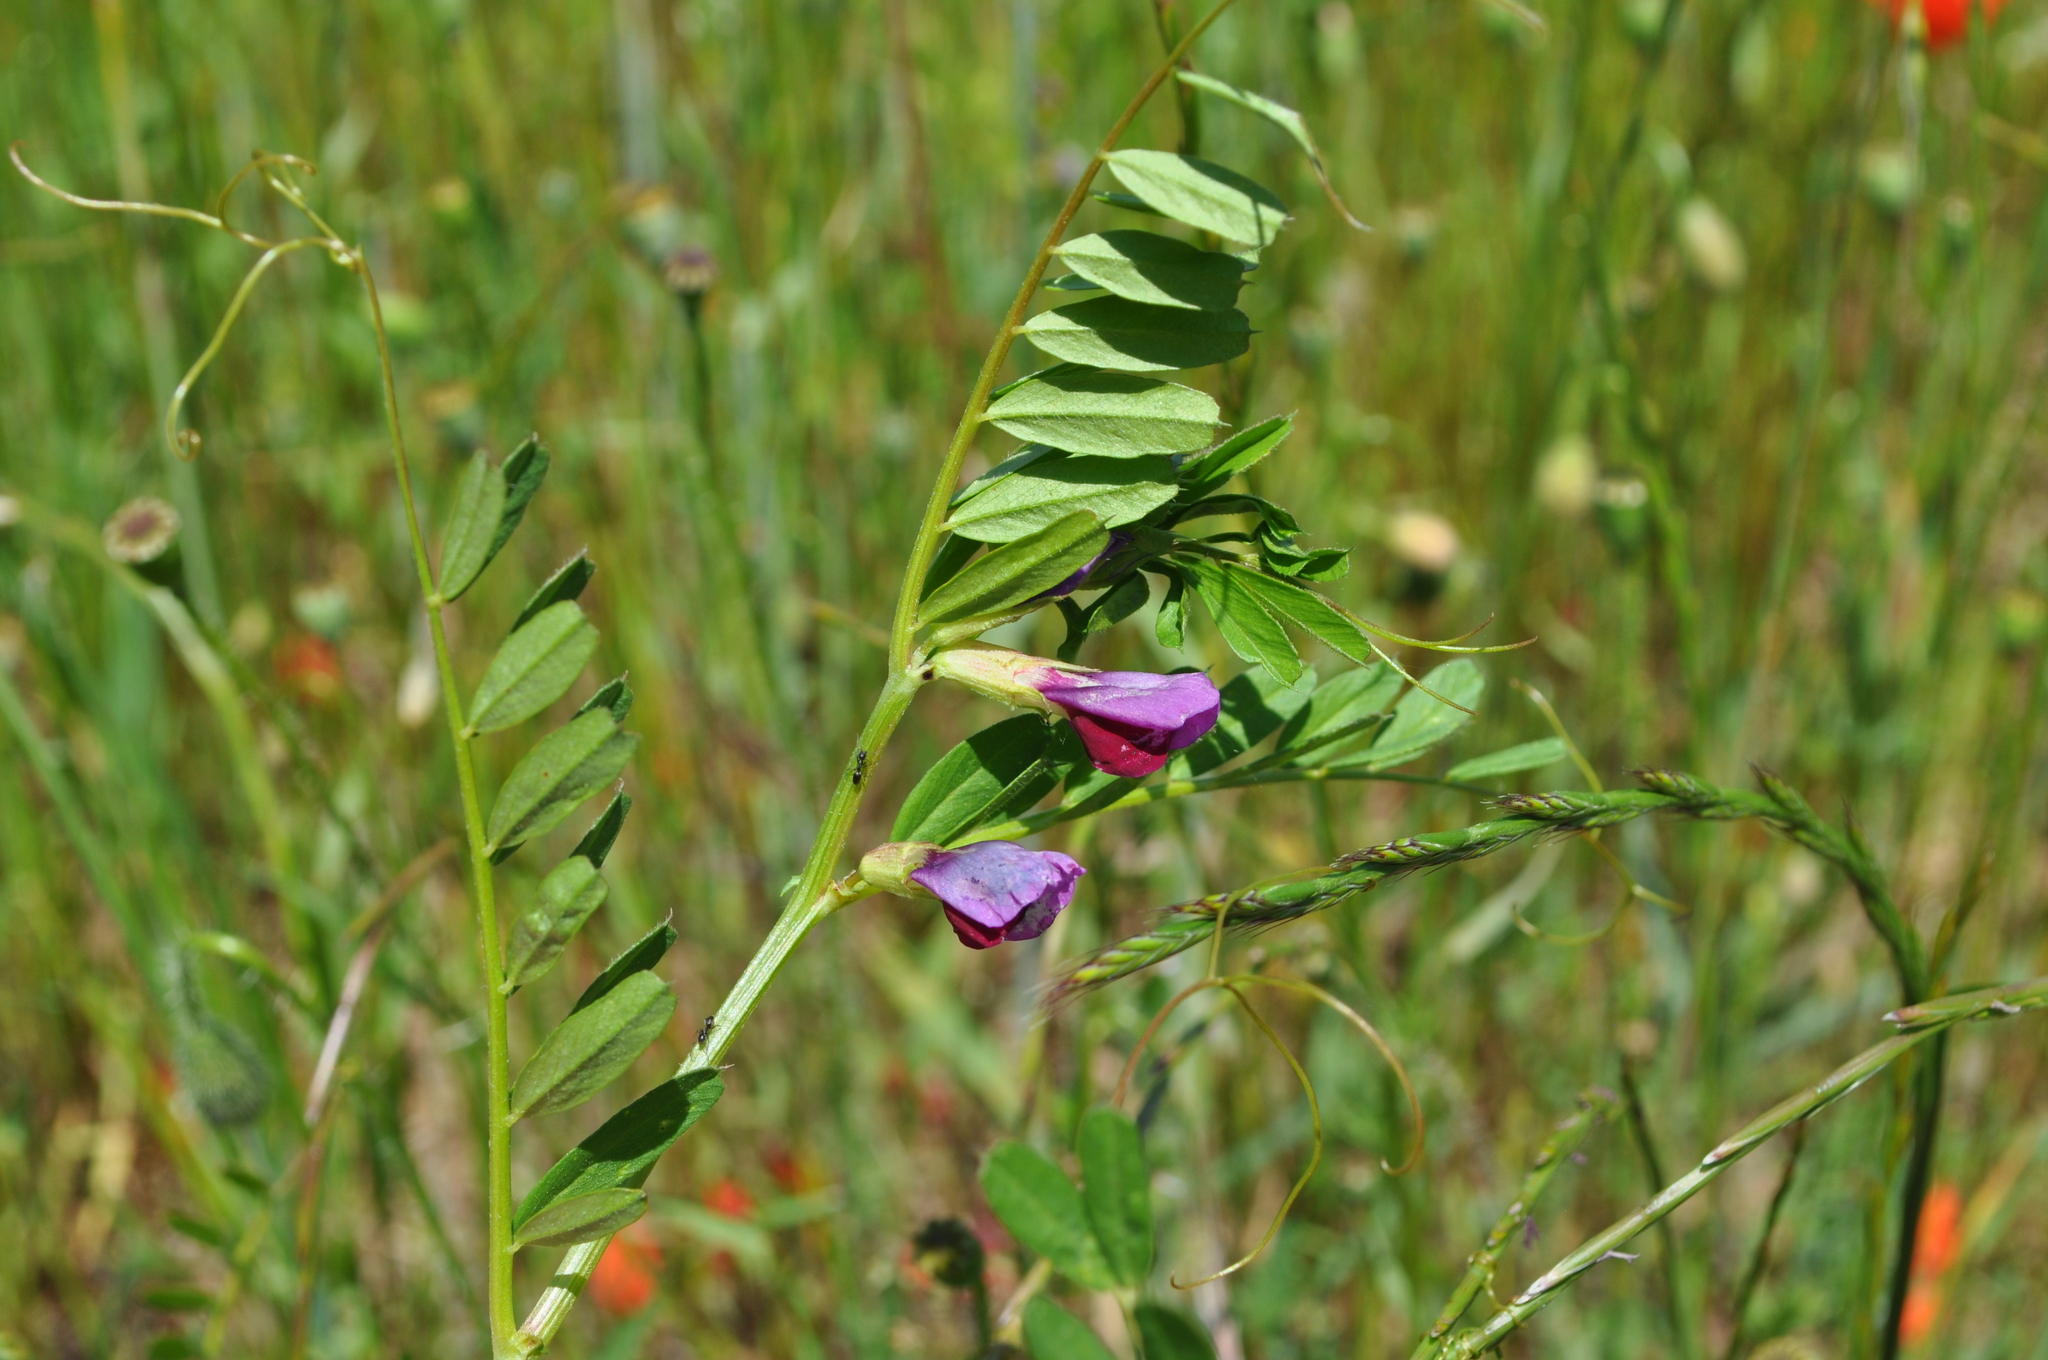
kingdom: Plantae
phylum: Tracheophyta
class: Magnoliopsida
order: Fabales
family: Fabaceae
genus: Vicia
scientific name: Vicia sativa
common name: Garden vetch
